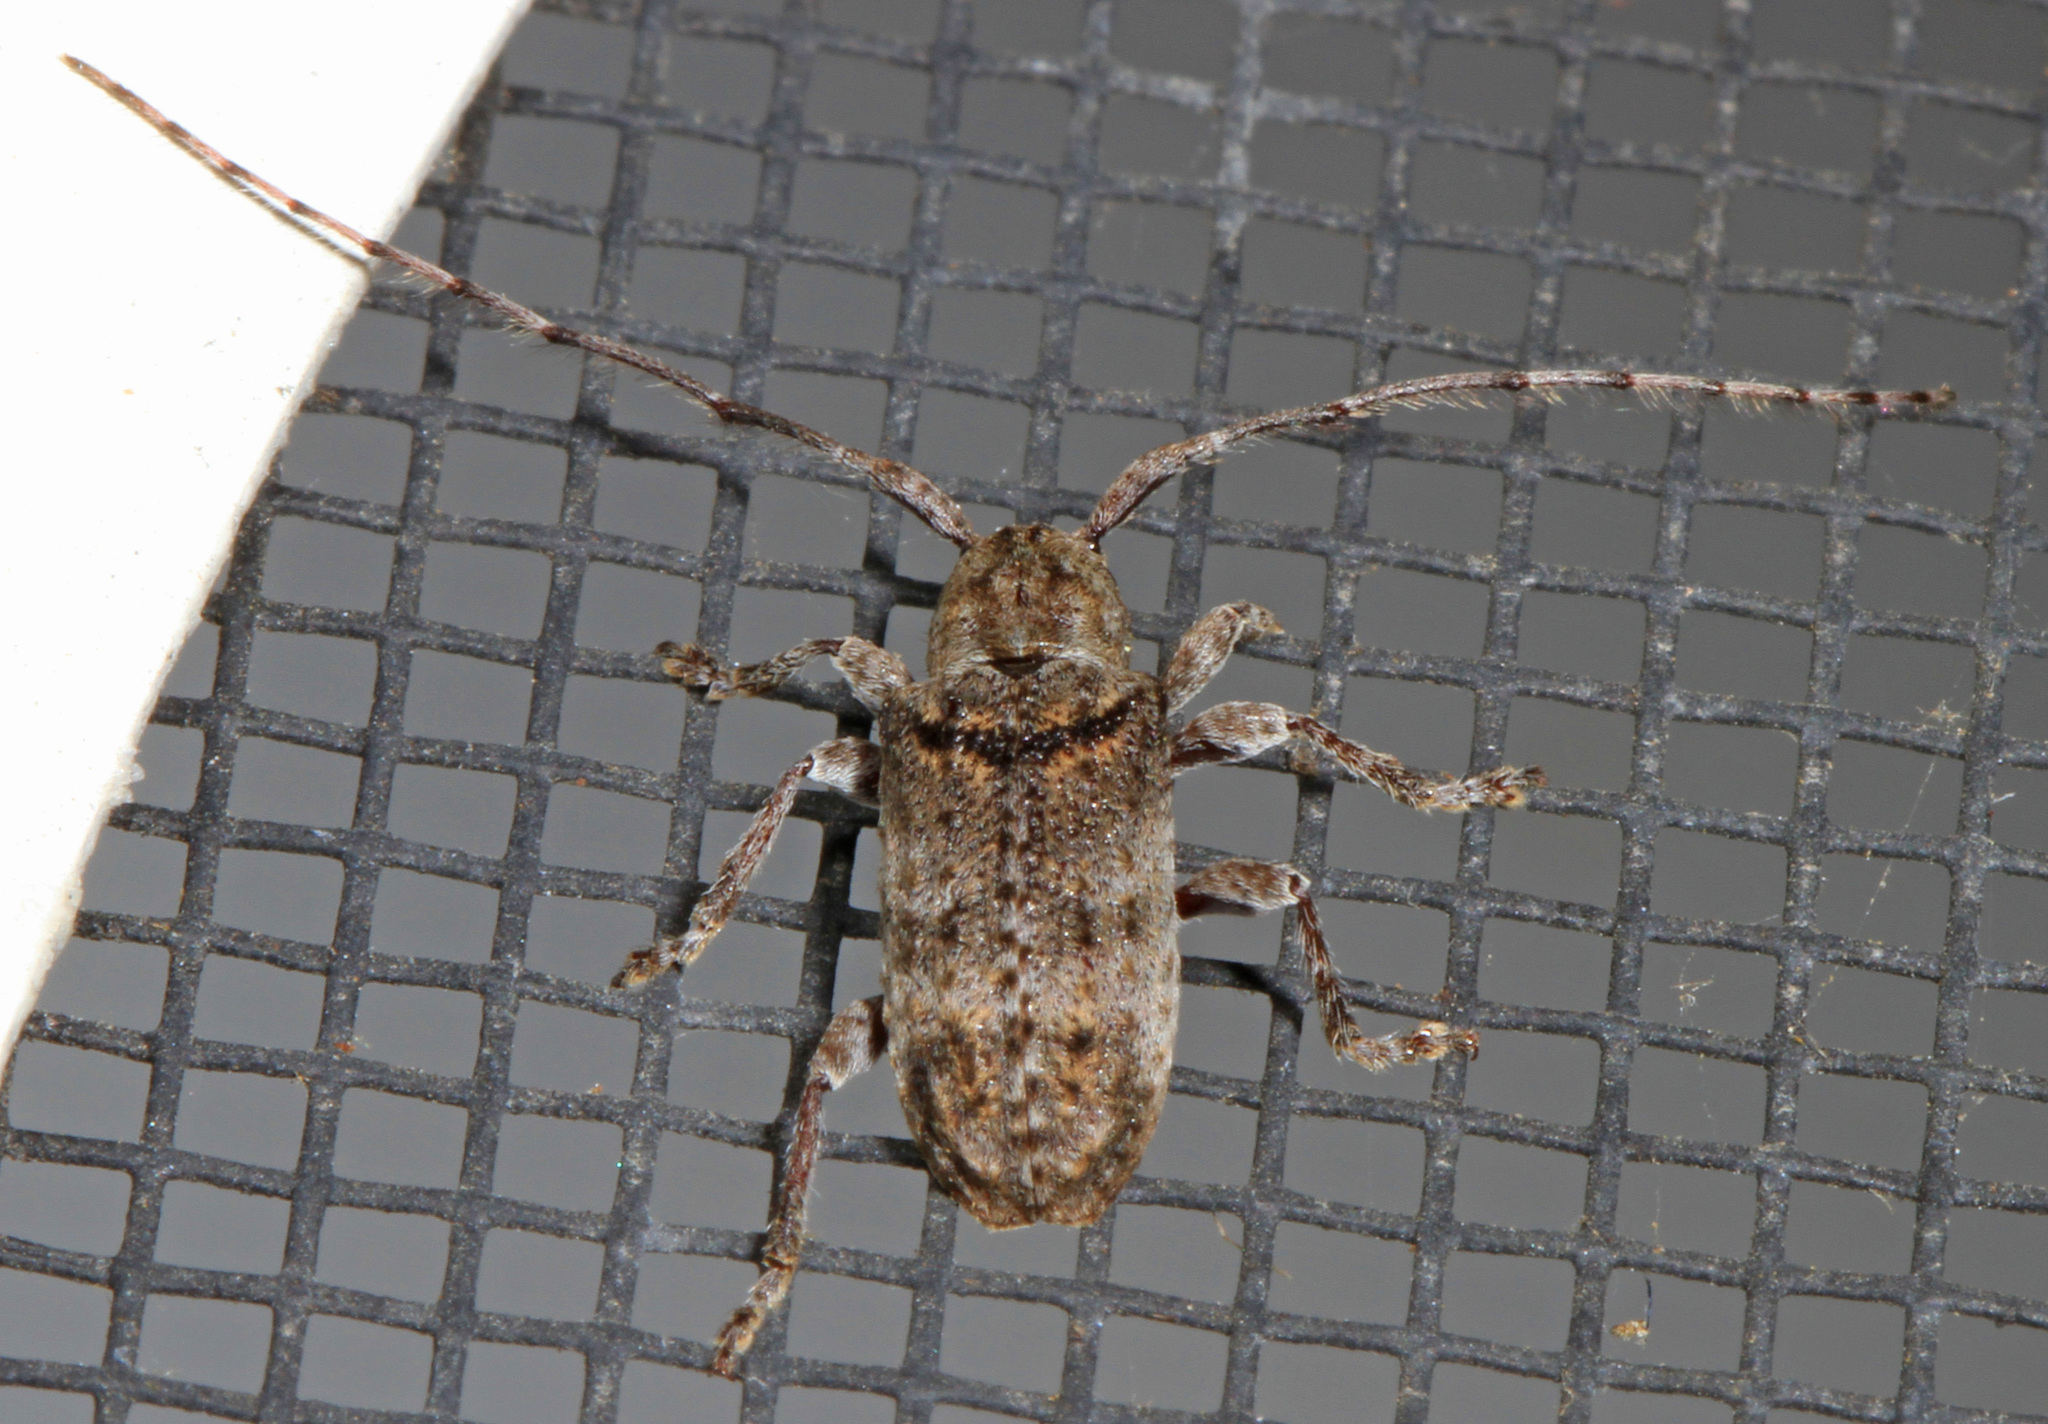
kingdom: Animalia
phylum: Arthropoda
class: Insecta
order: Coleoptera
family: Cerambycidae
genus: Ecyrus
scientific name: Ecyrus dasycerus
